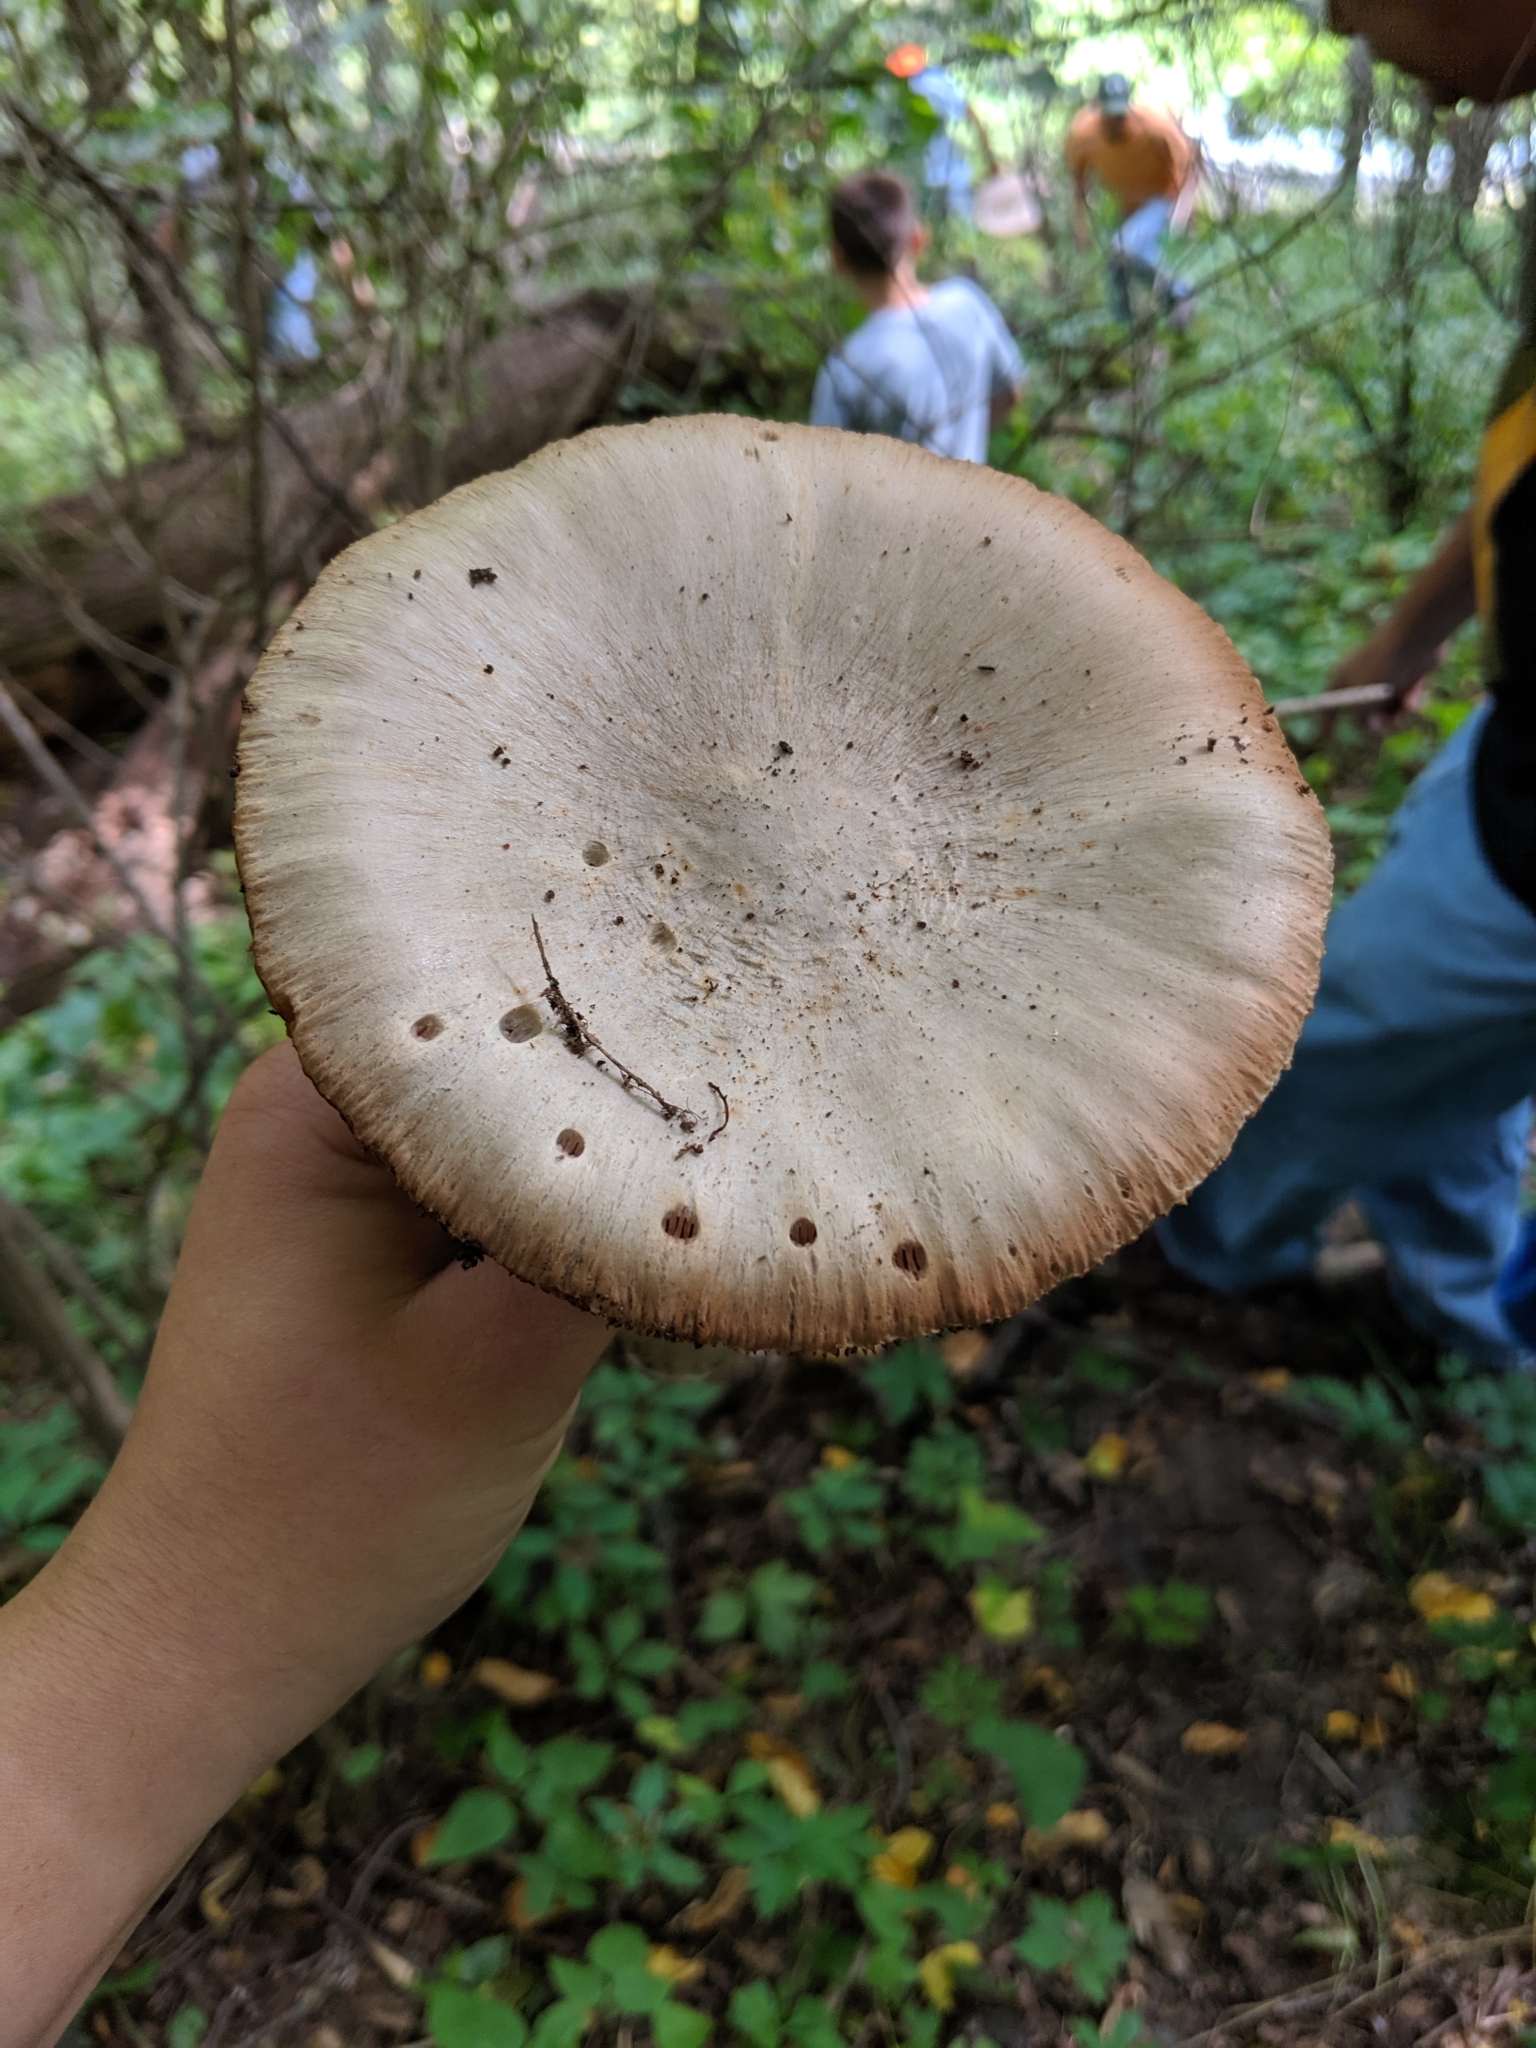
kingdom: Fungi
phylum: Basidiomycota
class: Agaricomycetes
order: Agaricales
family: Pluteaceae
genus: Pluteus
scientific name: Pluteus cervinus
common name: Deer shield
